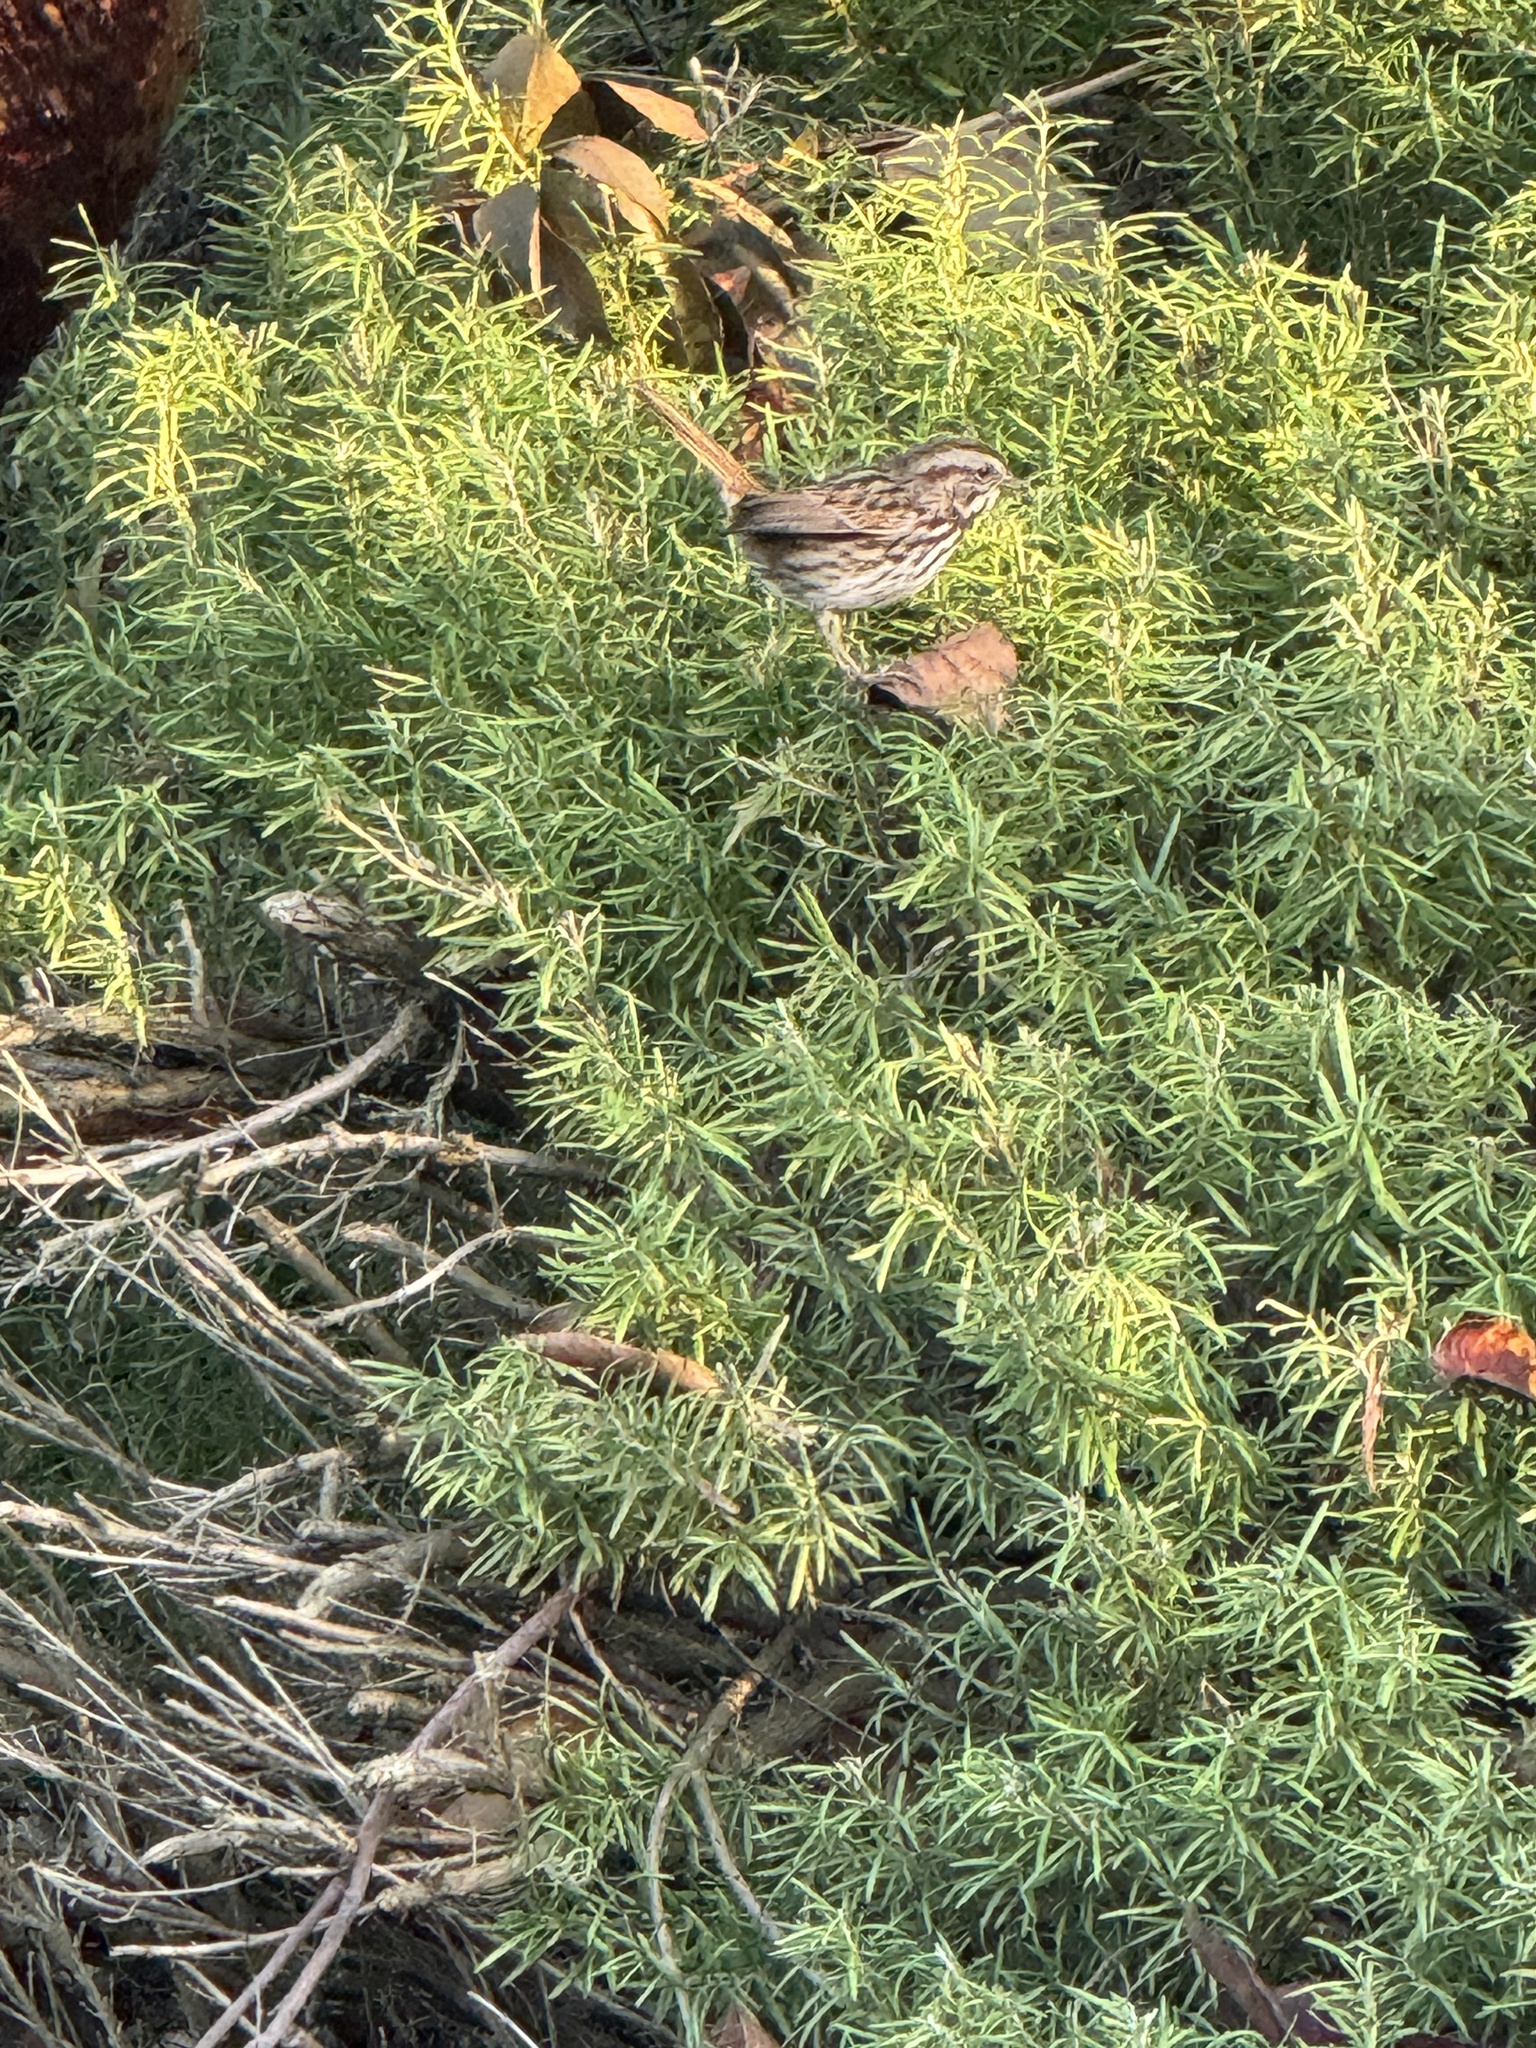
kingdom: Animalia
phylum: Chordata
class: Aves
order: Passeriformes
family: Passerellidae
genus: Melospiza
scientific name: Melospiza melodia
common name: Song sparrow
